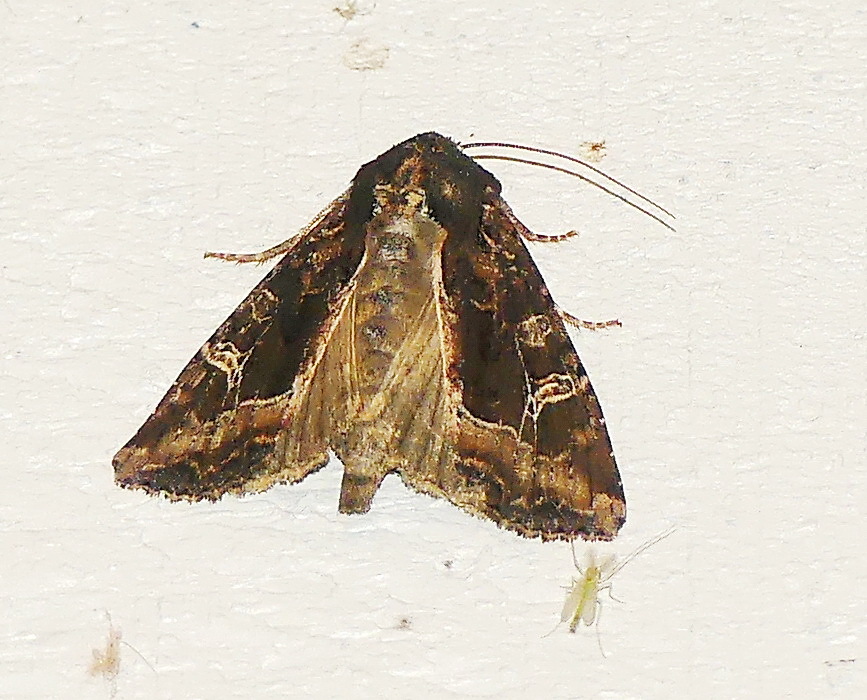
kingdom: Animalia
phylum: Arthropoda
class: Insecta
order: Lepidoptera
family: Noctuidae
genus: Helotropha
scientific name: Helotropha reniformis
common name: Kidney-spotted rustic moth
